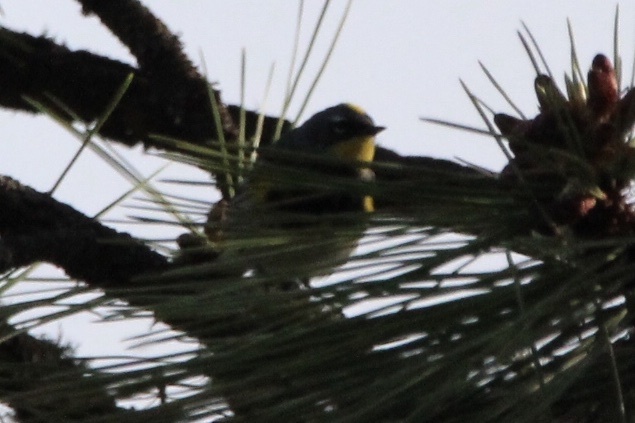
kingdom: Animalia
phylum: Chordata
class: Aves
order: Passeriformes
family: Parulidae
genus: Setophaga
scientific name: Setophaga coronata
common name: Myrtle warbler
